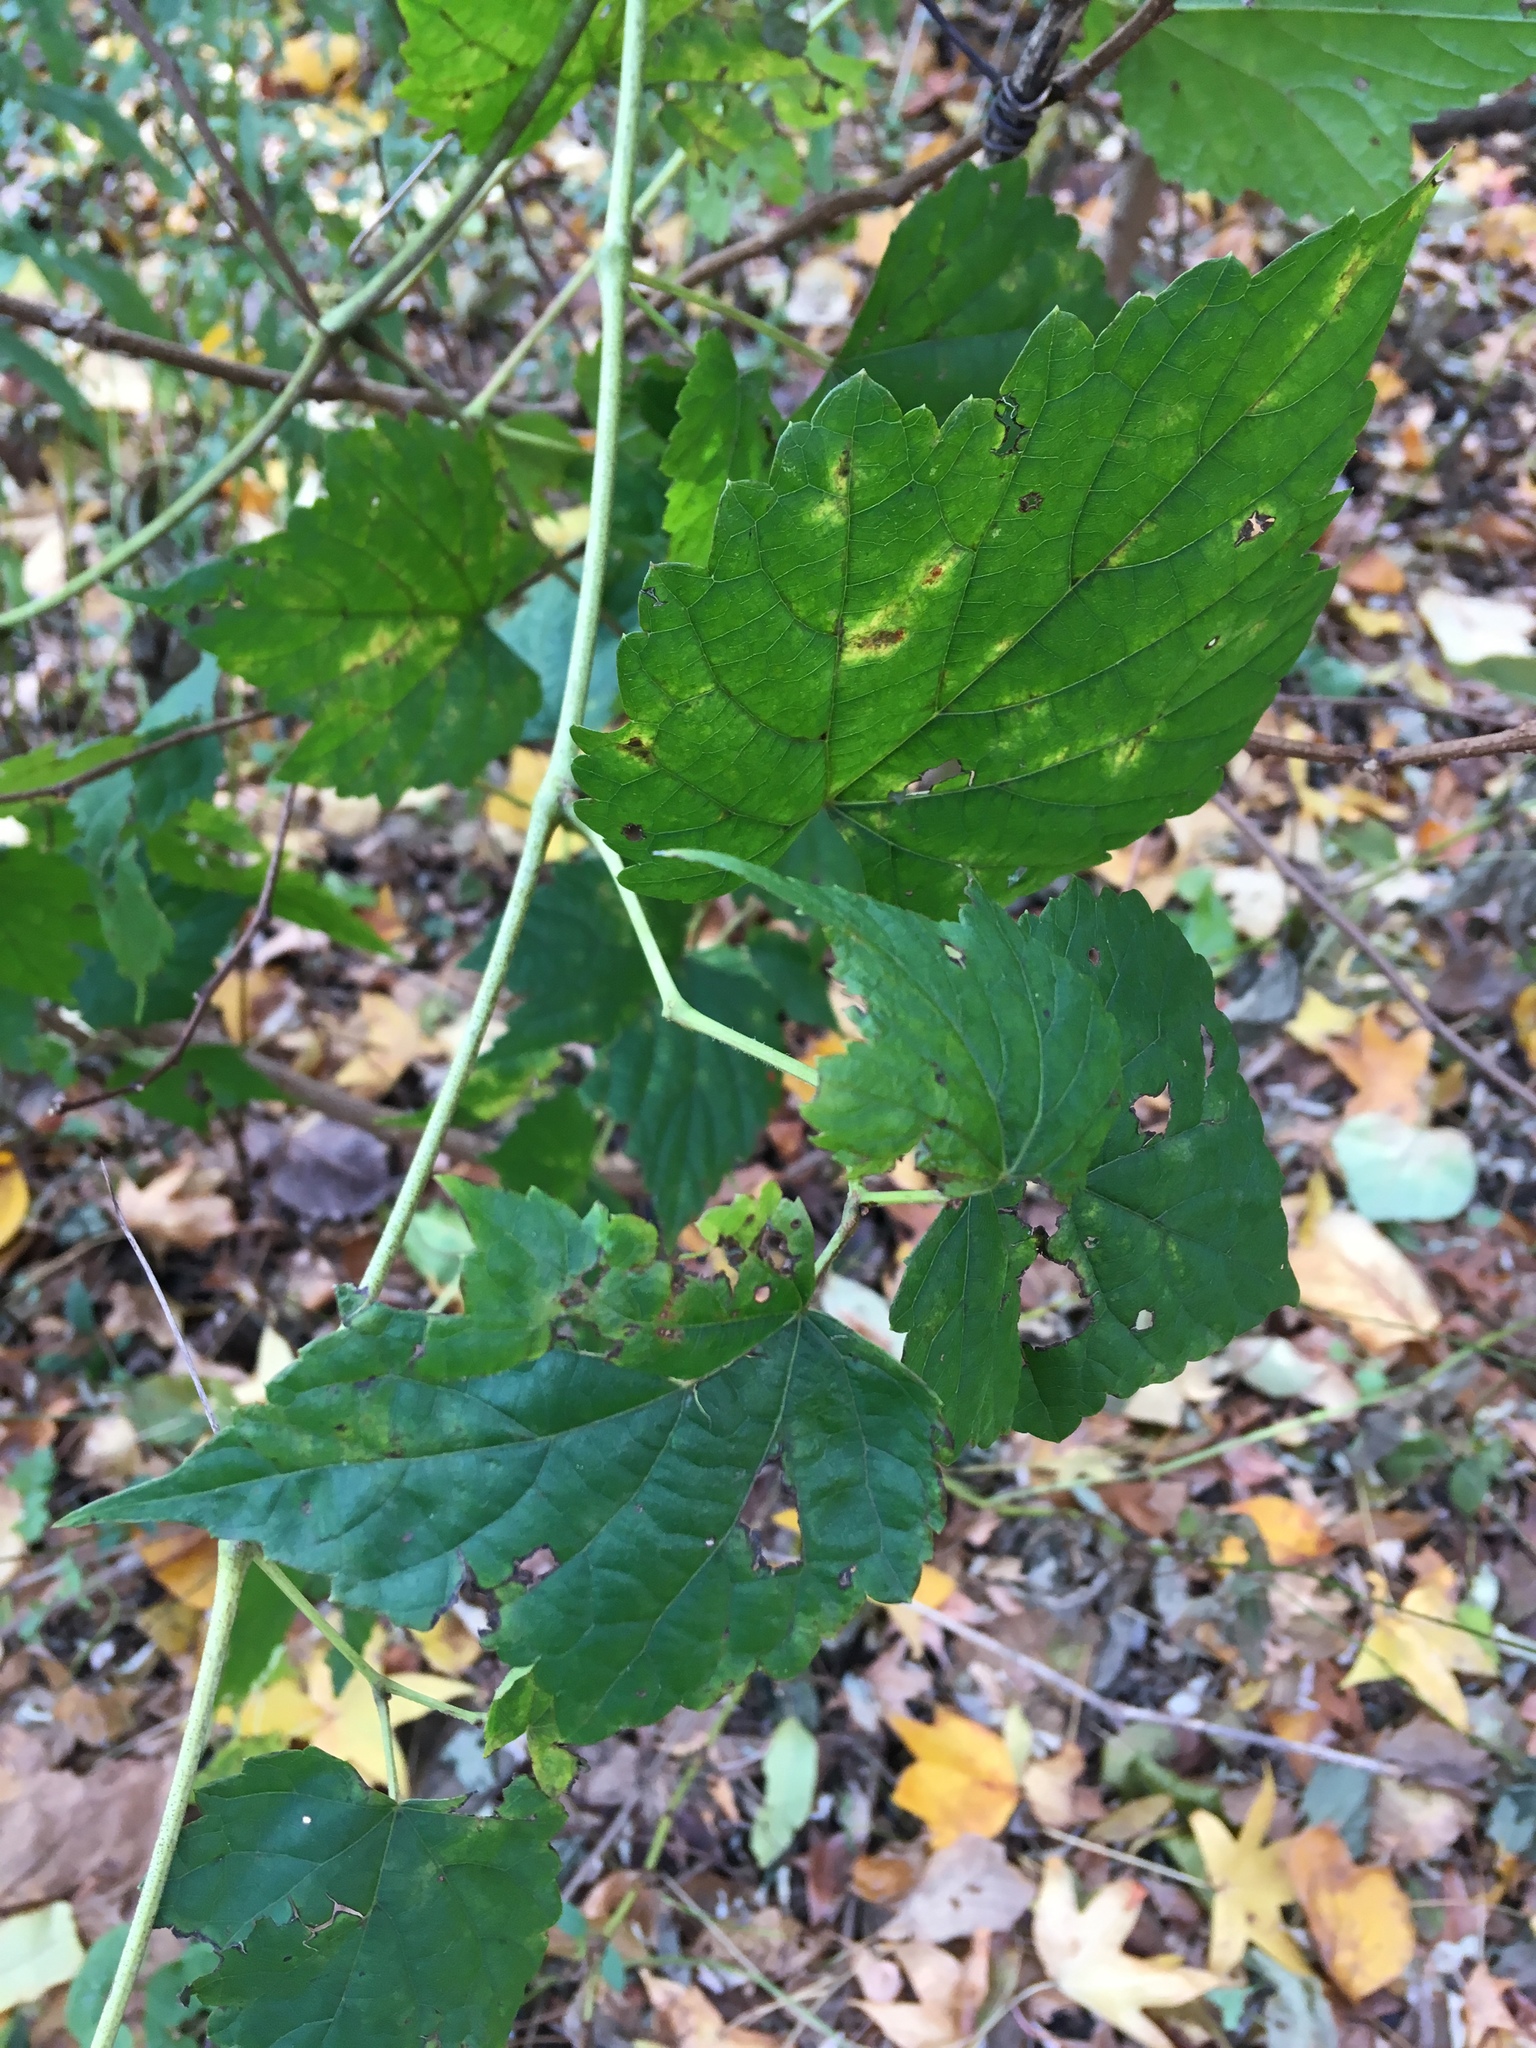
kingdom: Plantae
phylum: Tracheophyta
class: Magnoliopsida
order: Vitales
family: Vitaceae
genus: Ampelopsis
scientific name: Ampelopsis glandulosa
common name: Amur peppervine
